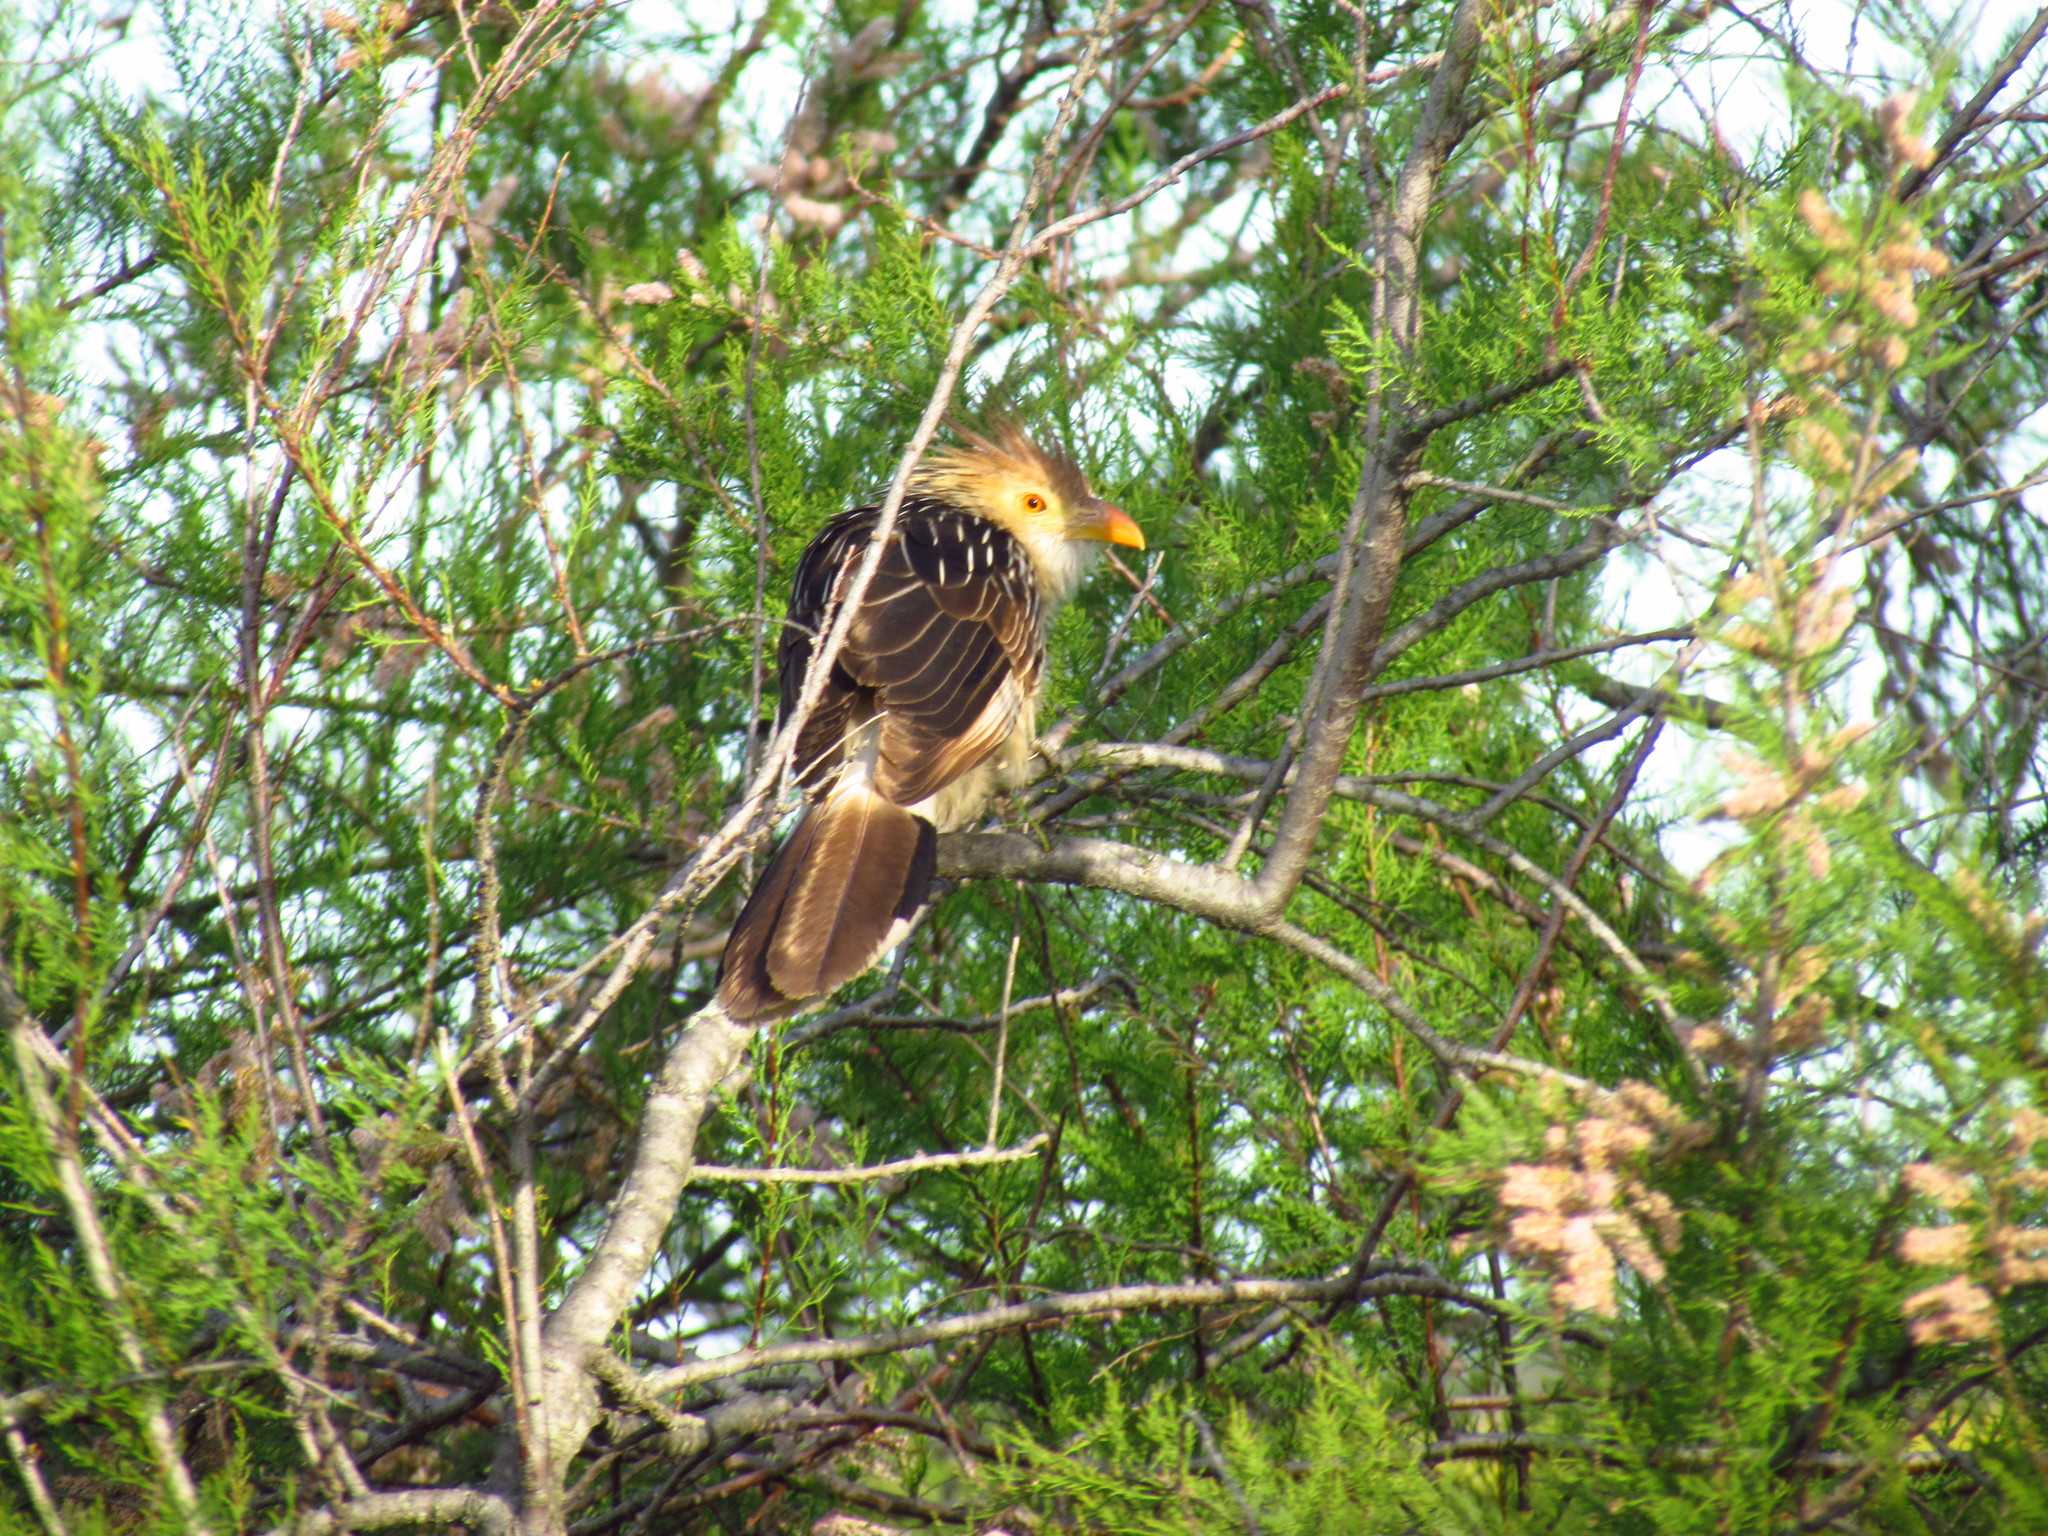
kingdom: Animalia
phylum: Chordata
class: Aves
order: Cuculiformes
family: Cuculidae
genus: Guira
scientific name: Guira guira
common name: Guira cuckoo
